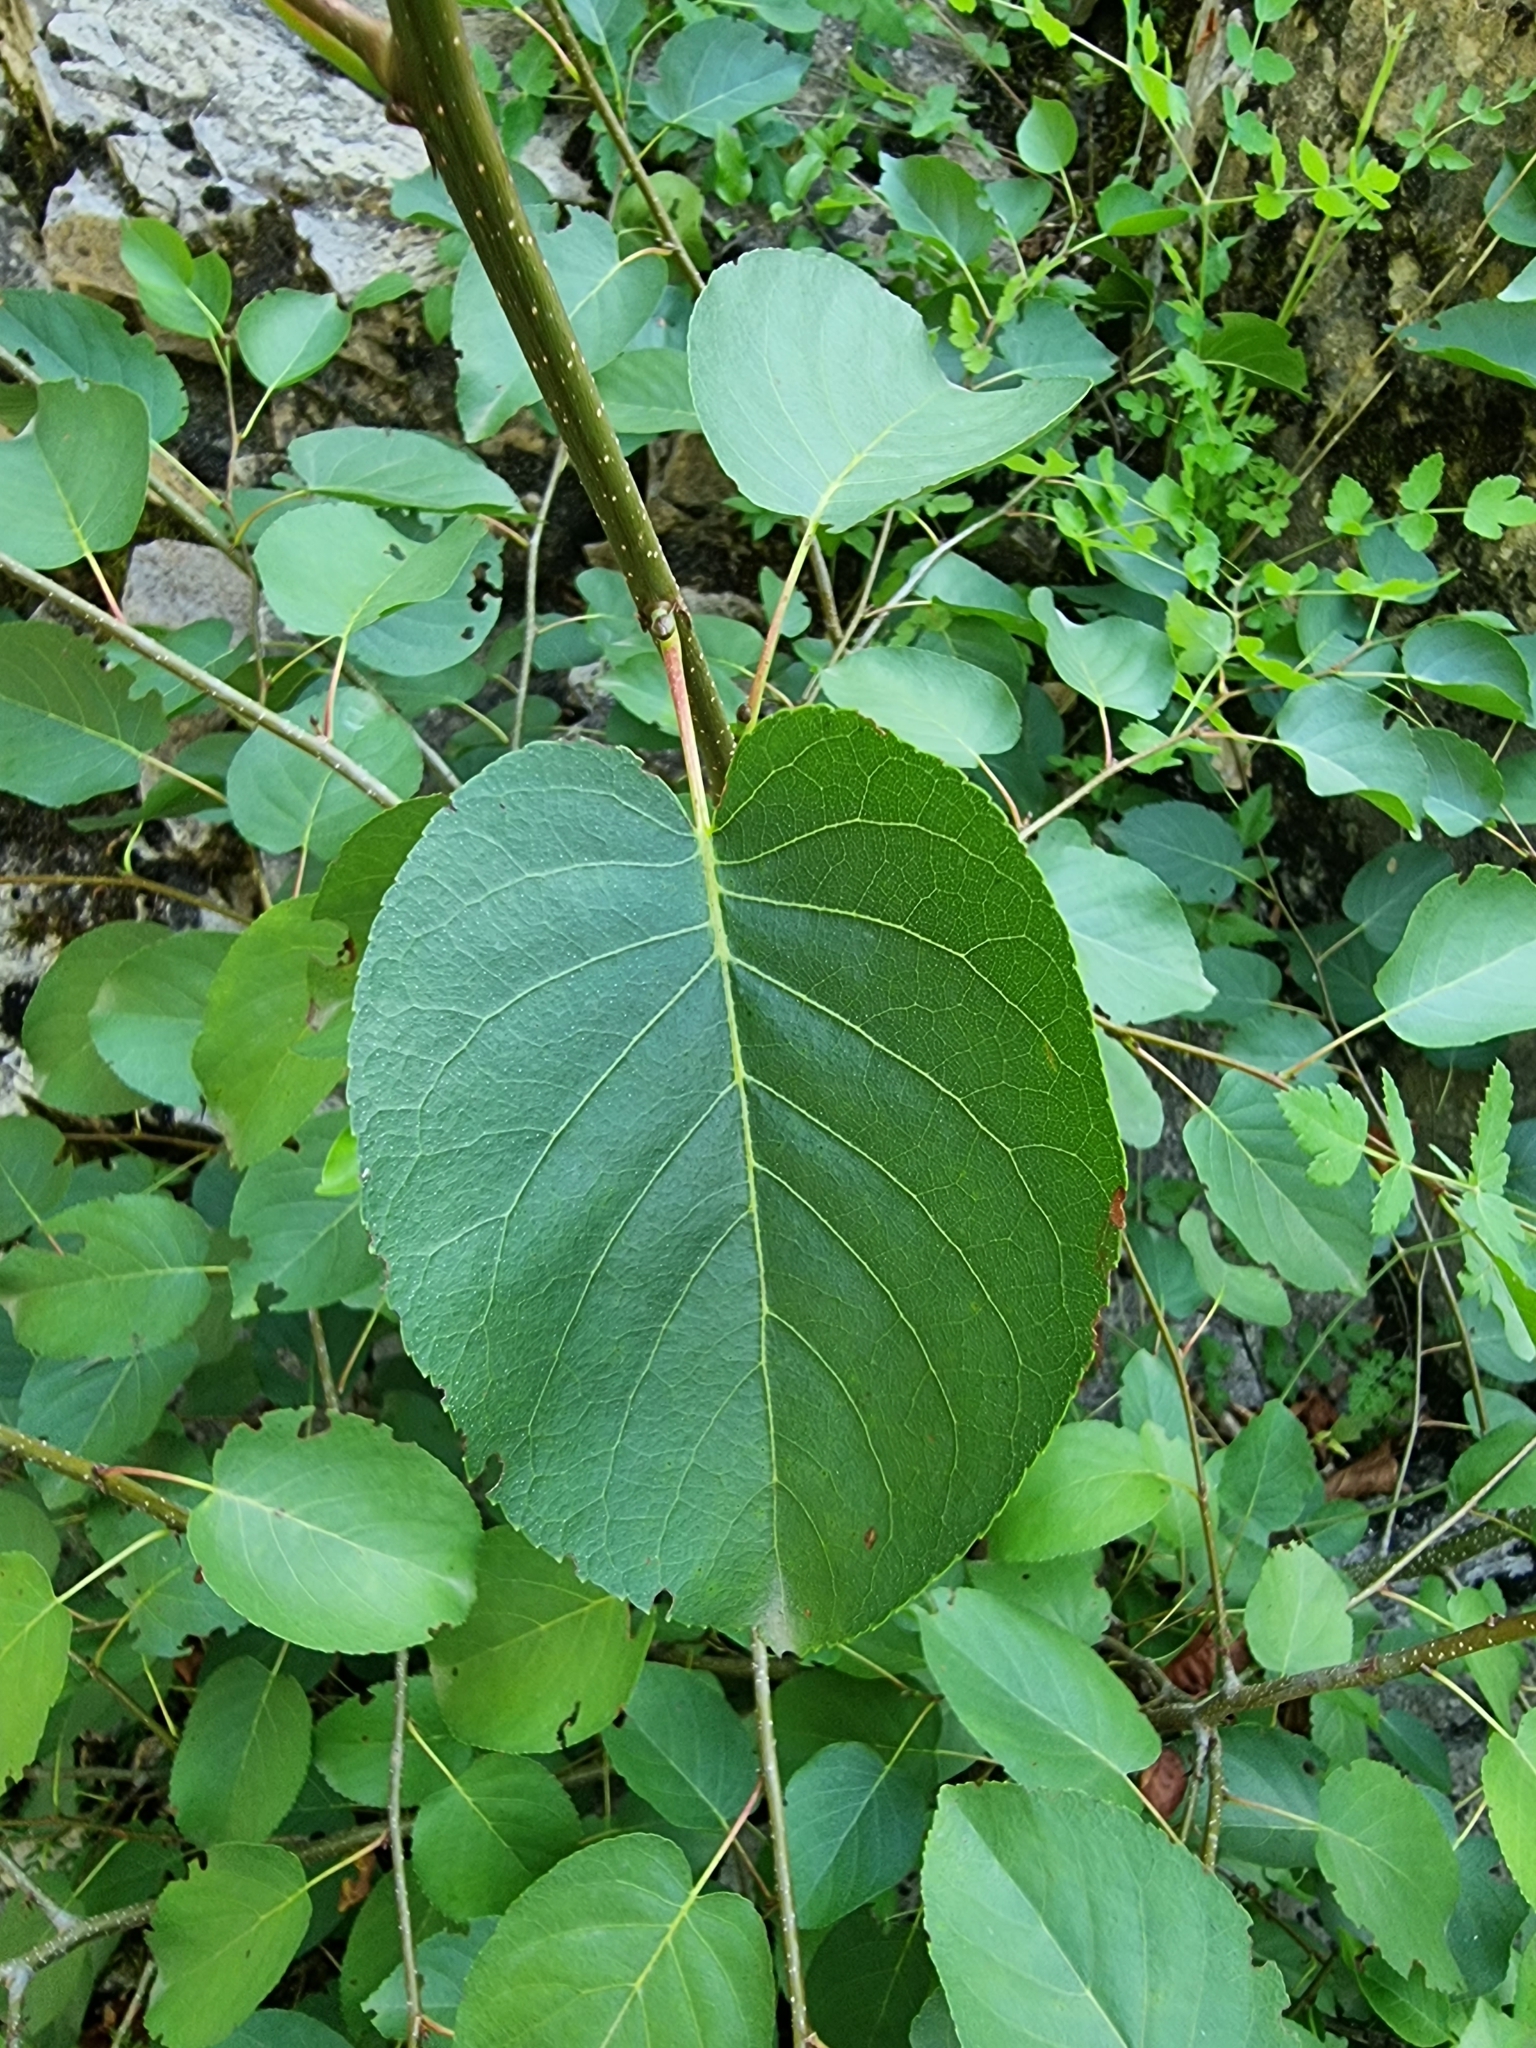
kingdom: Plantae
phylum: Tracheophyta
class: Magnoliopsida
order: Fagales
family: Betulaceae
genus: Alnus
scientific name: Alnus cordata
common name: Italian alder
